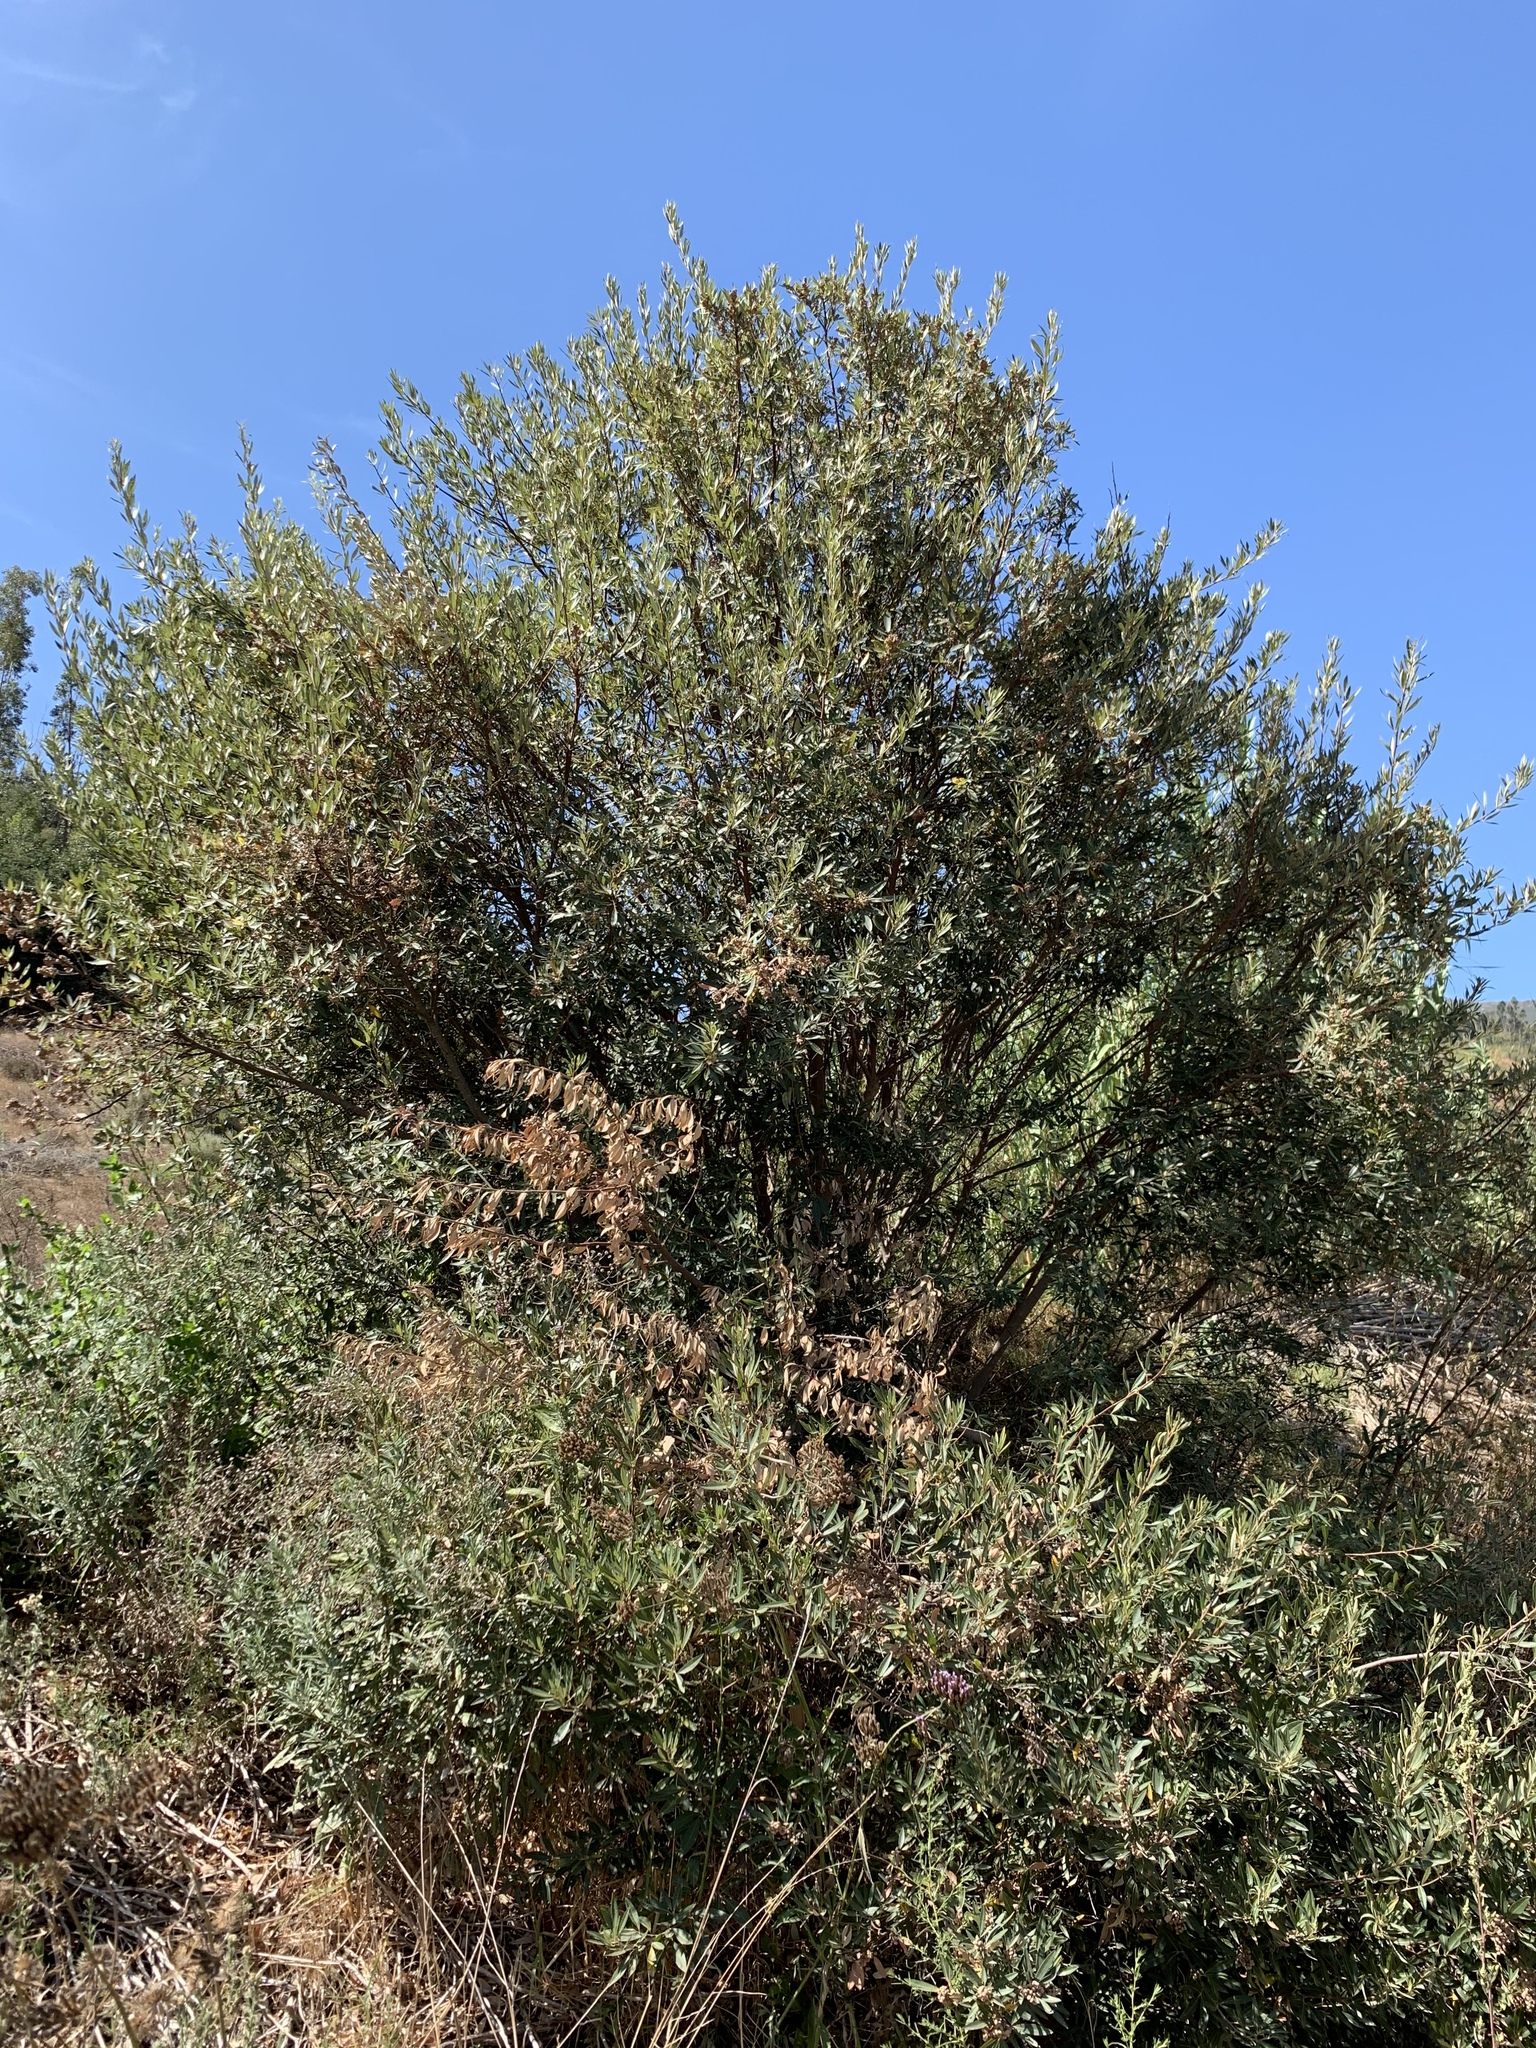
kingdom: Plantae
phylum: Tracheophyta
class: Magnoliopsida
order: Sapindales
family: Anacardiaceae
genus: Searsia
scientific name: Searsia angustifolia
